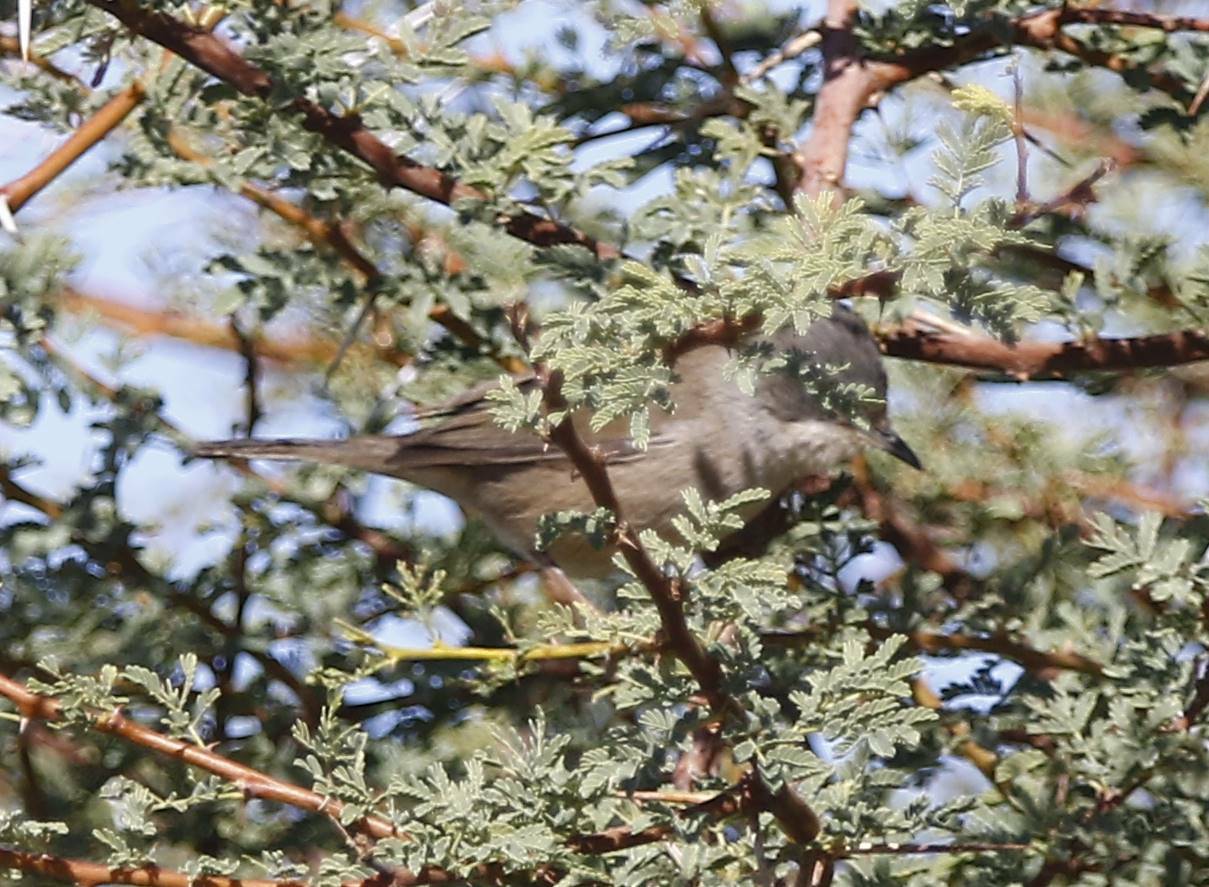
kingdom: Animalia
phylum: Chordata
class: Aves
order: Passeriformes
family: Sylviidae
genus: Curruca
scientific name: Curruca melanocephala
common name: Sardinian warbler
